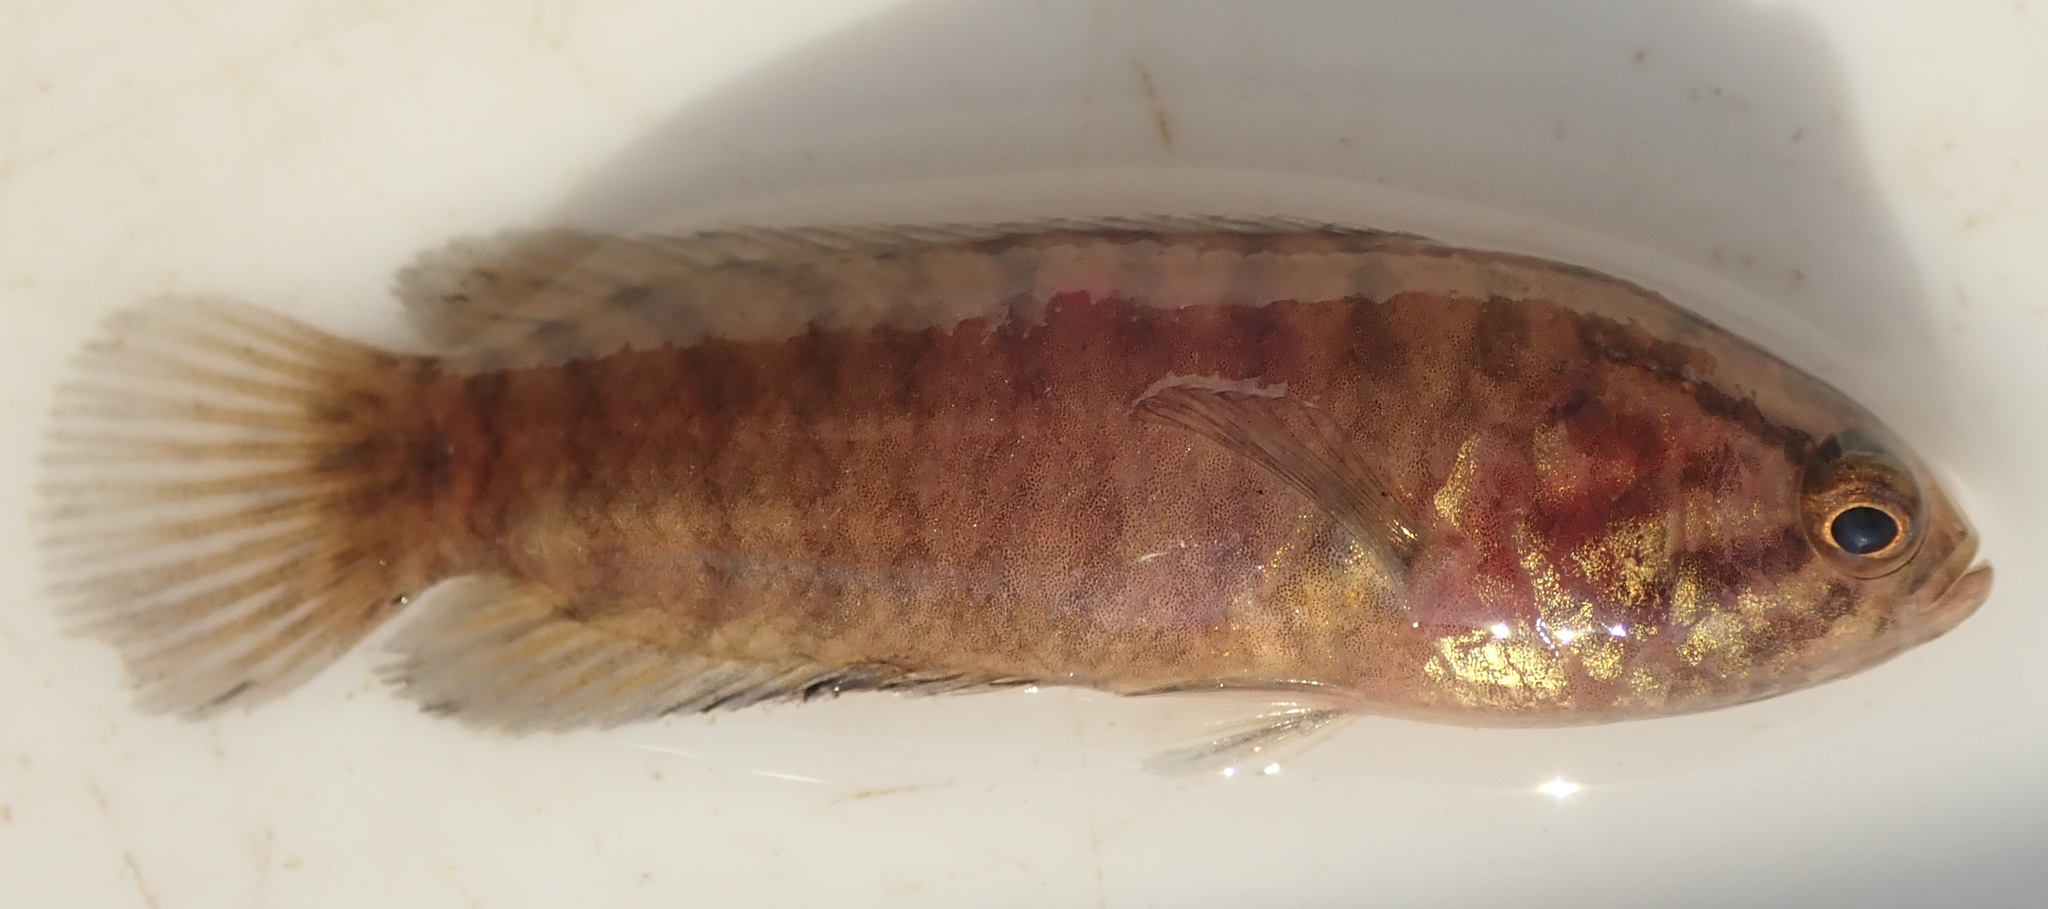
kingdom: Animalia
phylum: Chordata
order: Perciformes
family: Anabantidae
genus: Microctenopoma
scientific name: Microctenopoma intermedium
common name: Blackspot climbing perch
